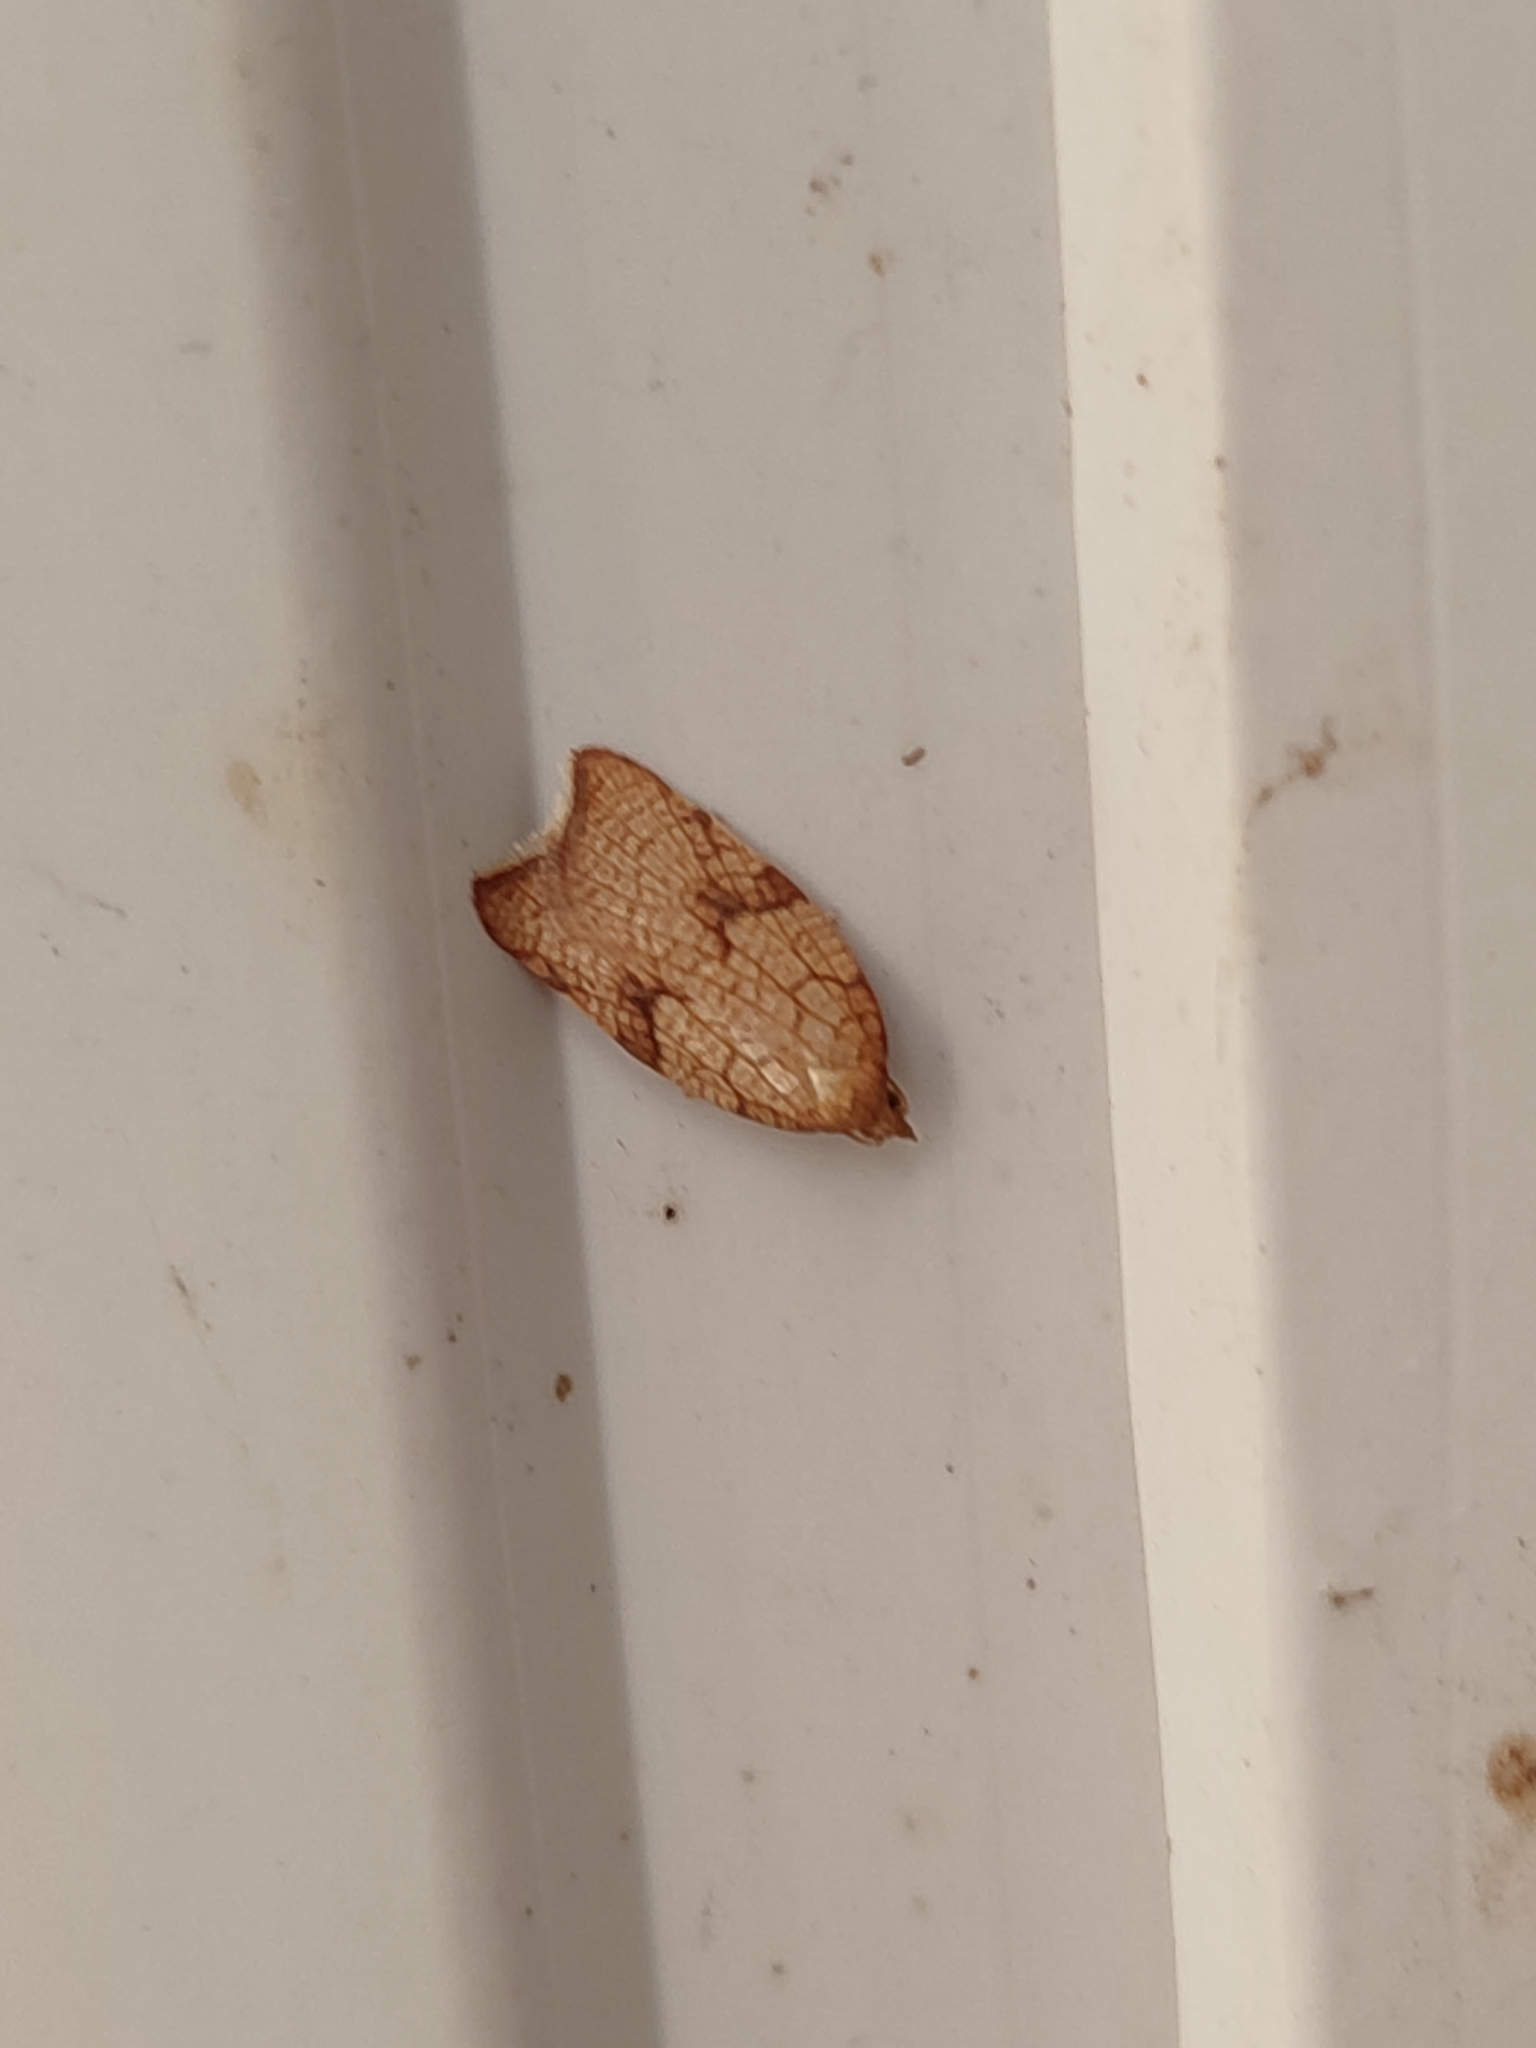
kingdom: Animalia
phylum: Arthropoda
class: Insecta
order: Lepidoptera
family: Tortricidae
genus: Acleris
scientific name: Acleris rhombana
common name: Tortricid moth
